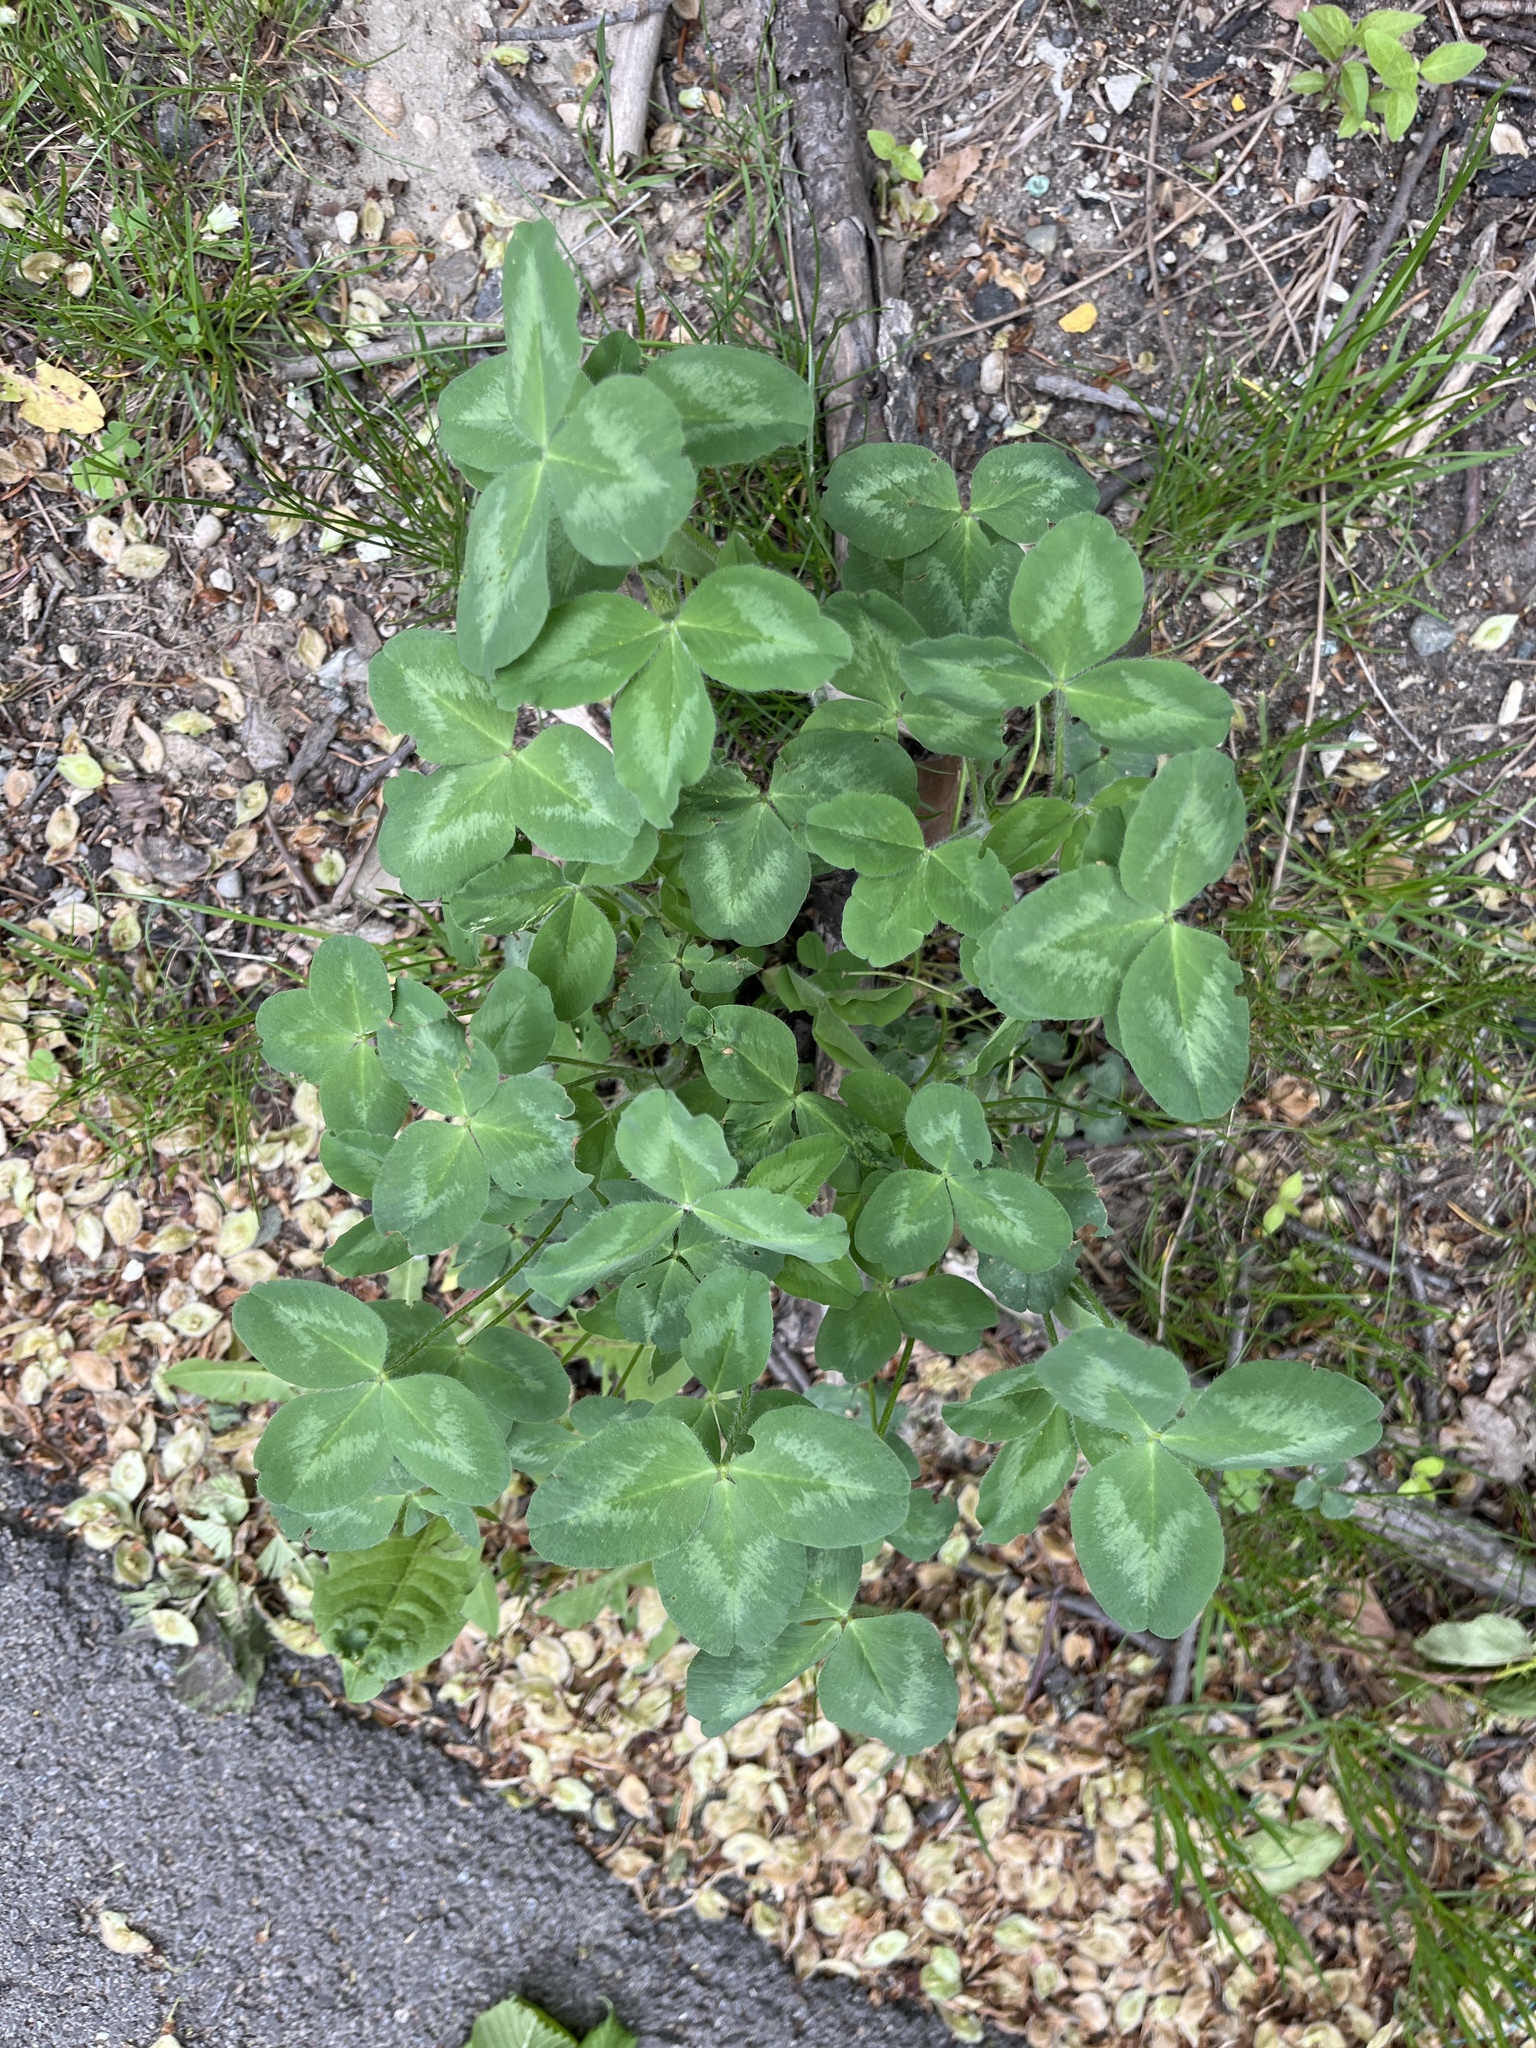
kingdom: Plantae
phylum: Tracheophyta
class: Magnoliopsida
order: Fabales
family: Fabaceae
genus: Trifolium
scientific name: Trifolium pratense
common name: Red clover
